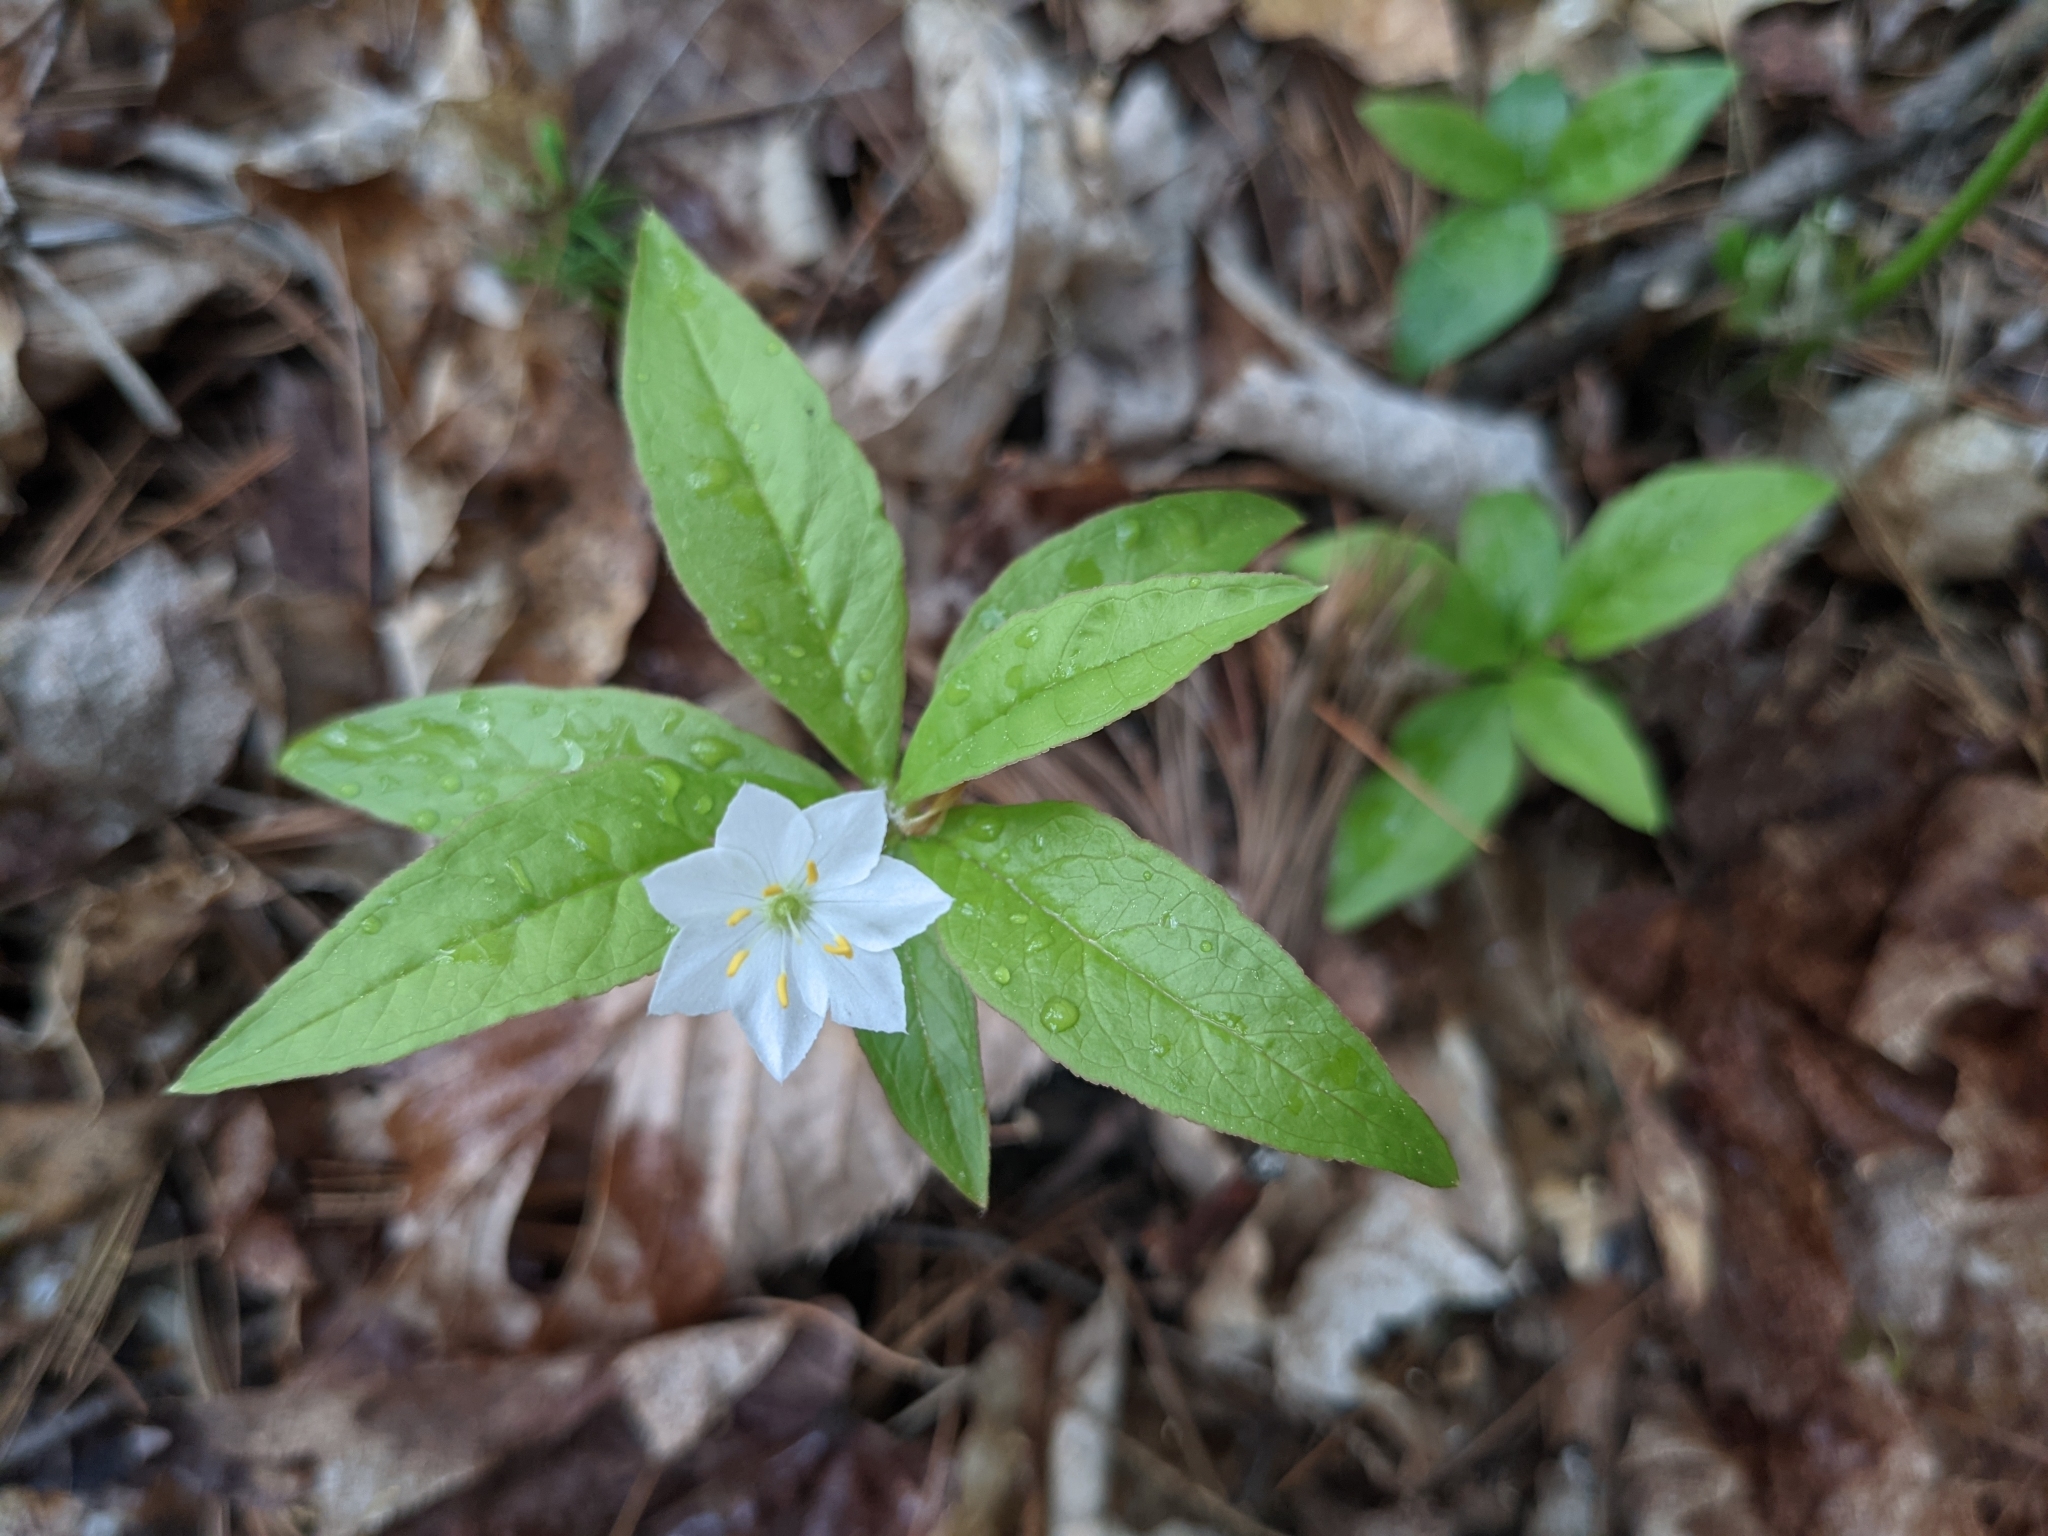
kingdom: Plantae
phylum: Tracheophyta
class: Magnoliopsida
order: Ericales
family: Primulaceae
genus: Lysimachia
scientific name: Lysimachia borealis
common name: American starflower
